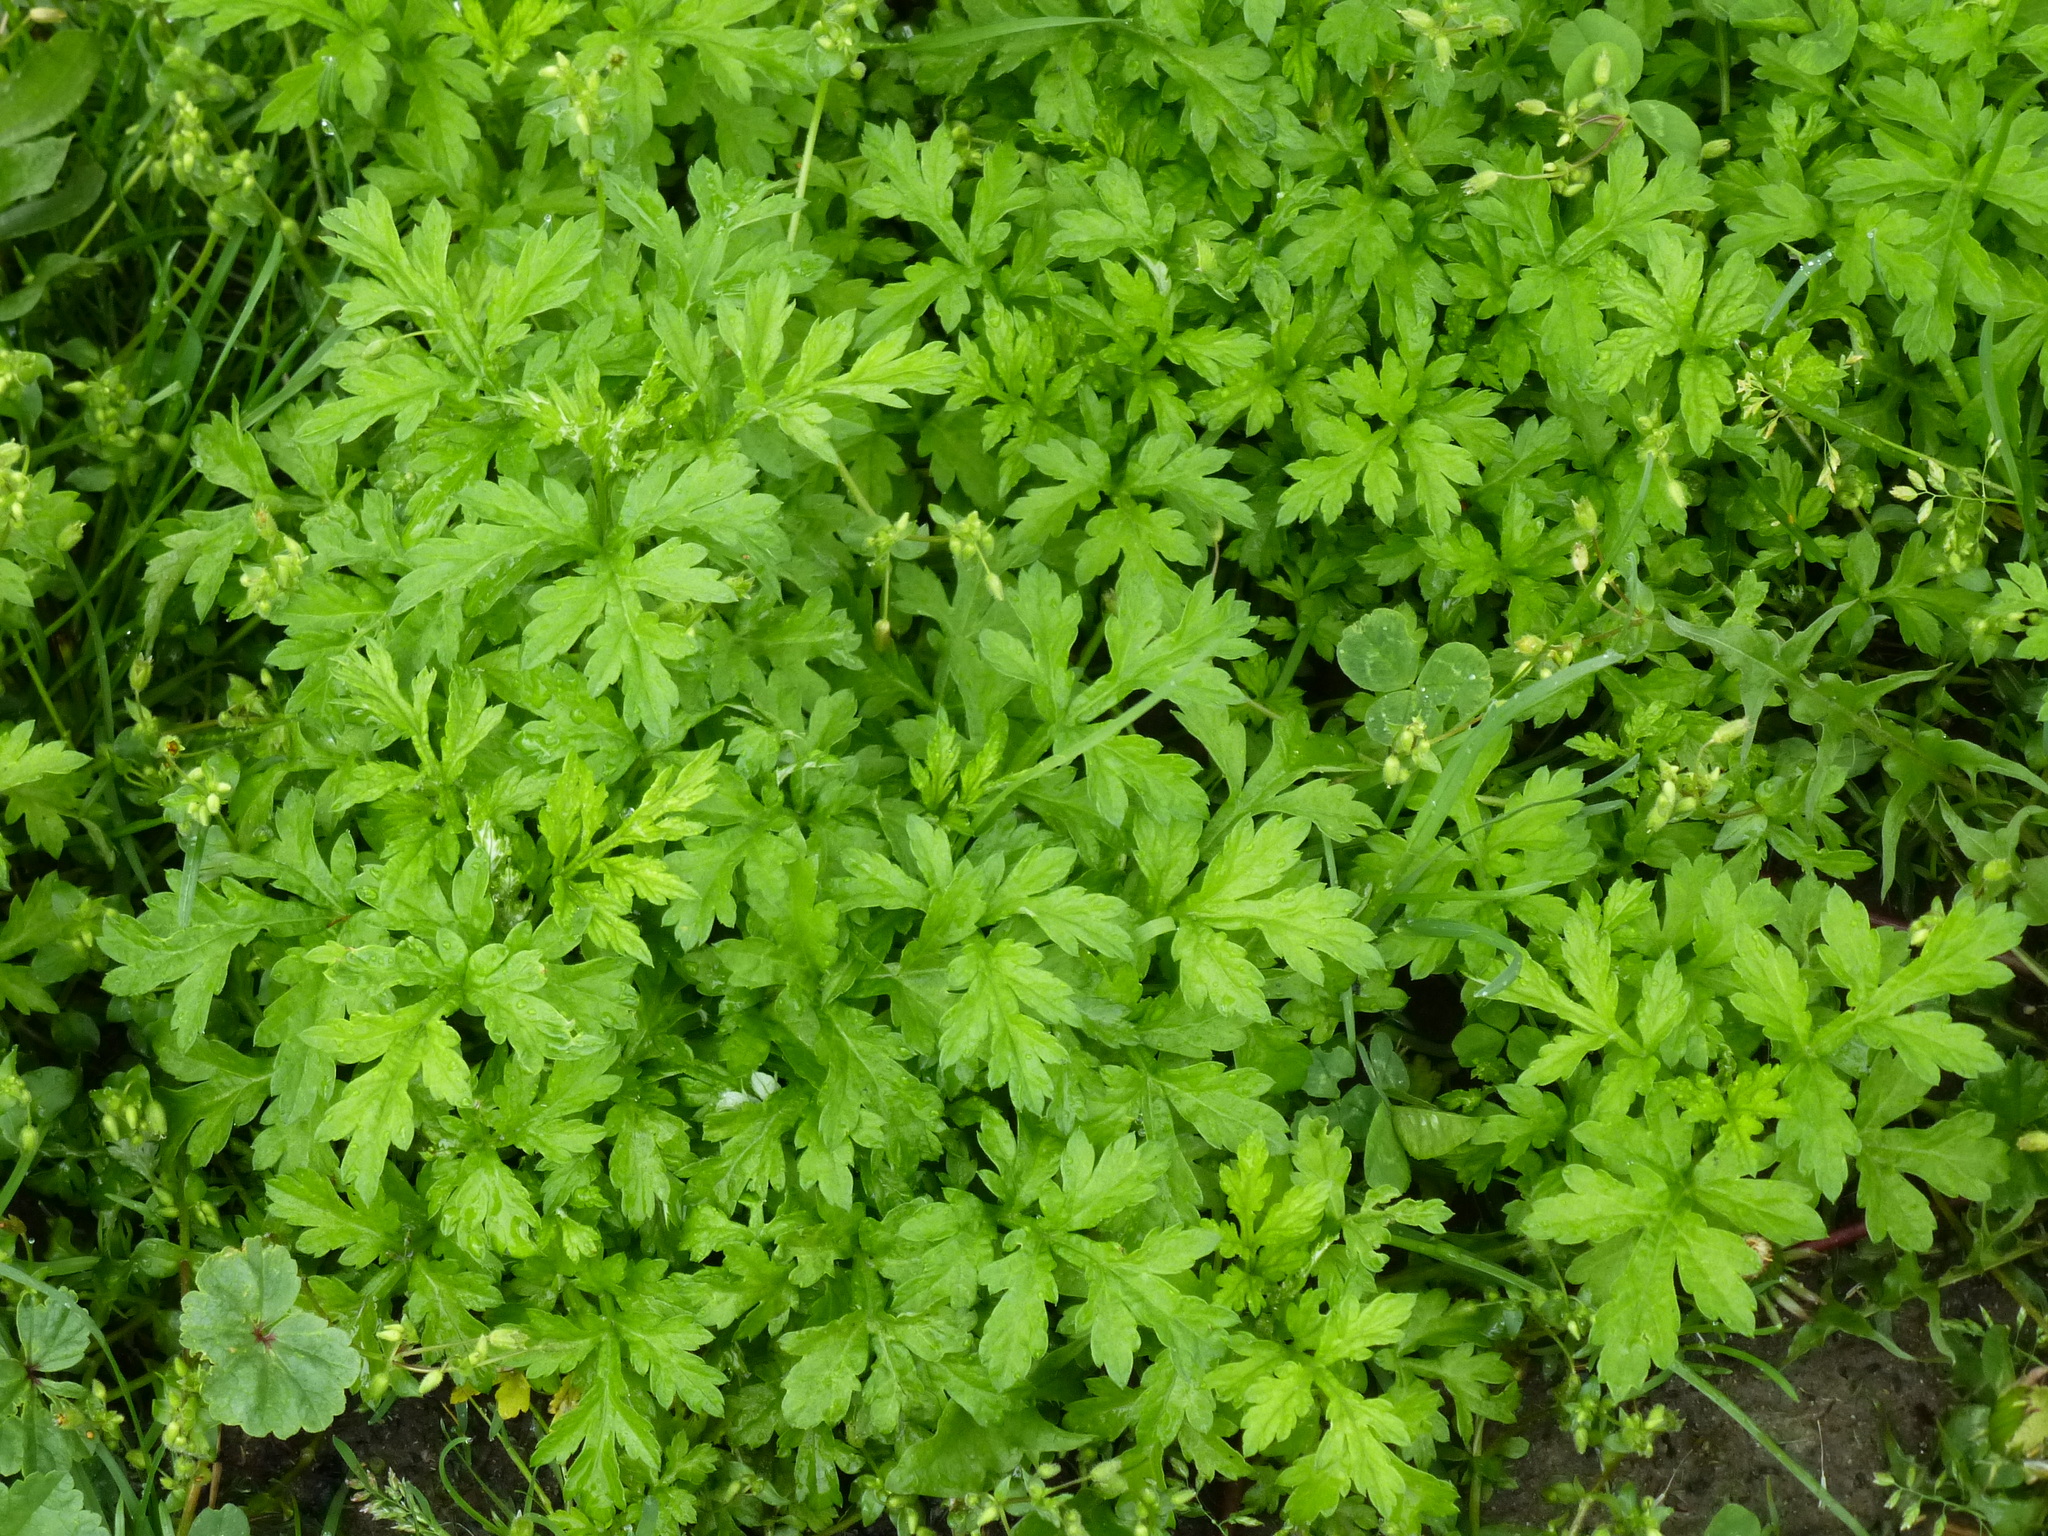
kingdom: Plantae
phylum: Tracheophyta
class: Magnoliopsida
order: Asterales
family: Asteraceae
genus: Artemisia
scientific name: Artemisia vulgaris
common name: Mugwort
